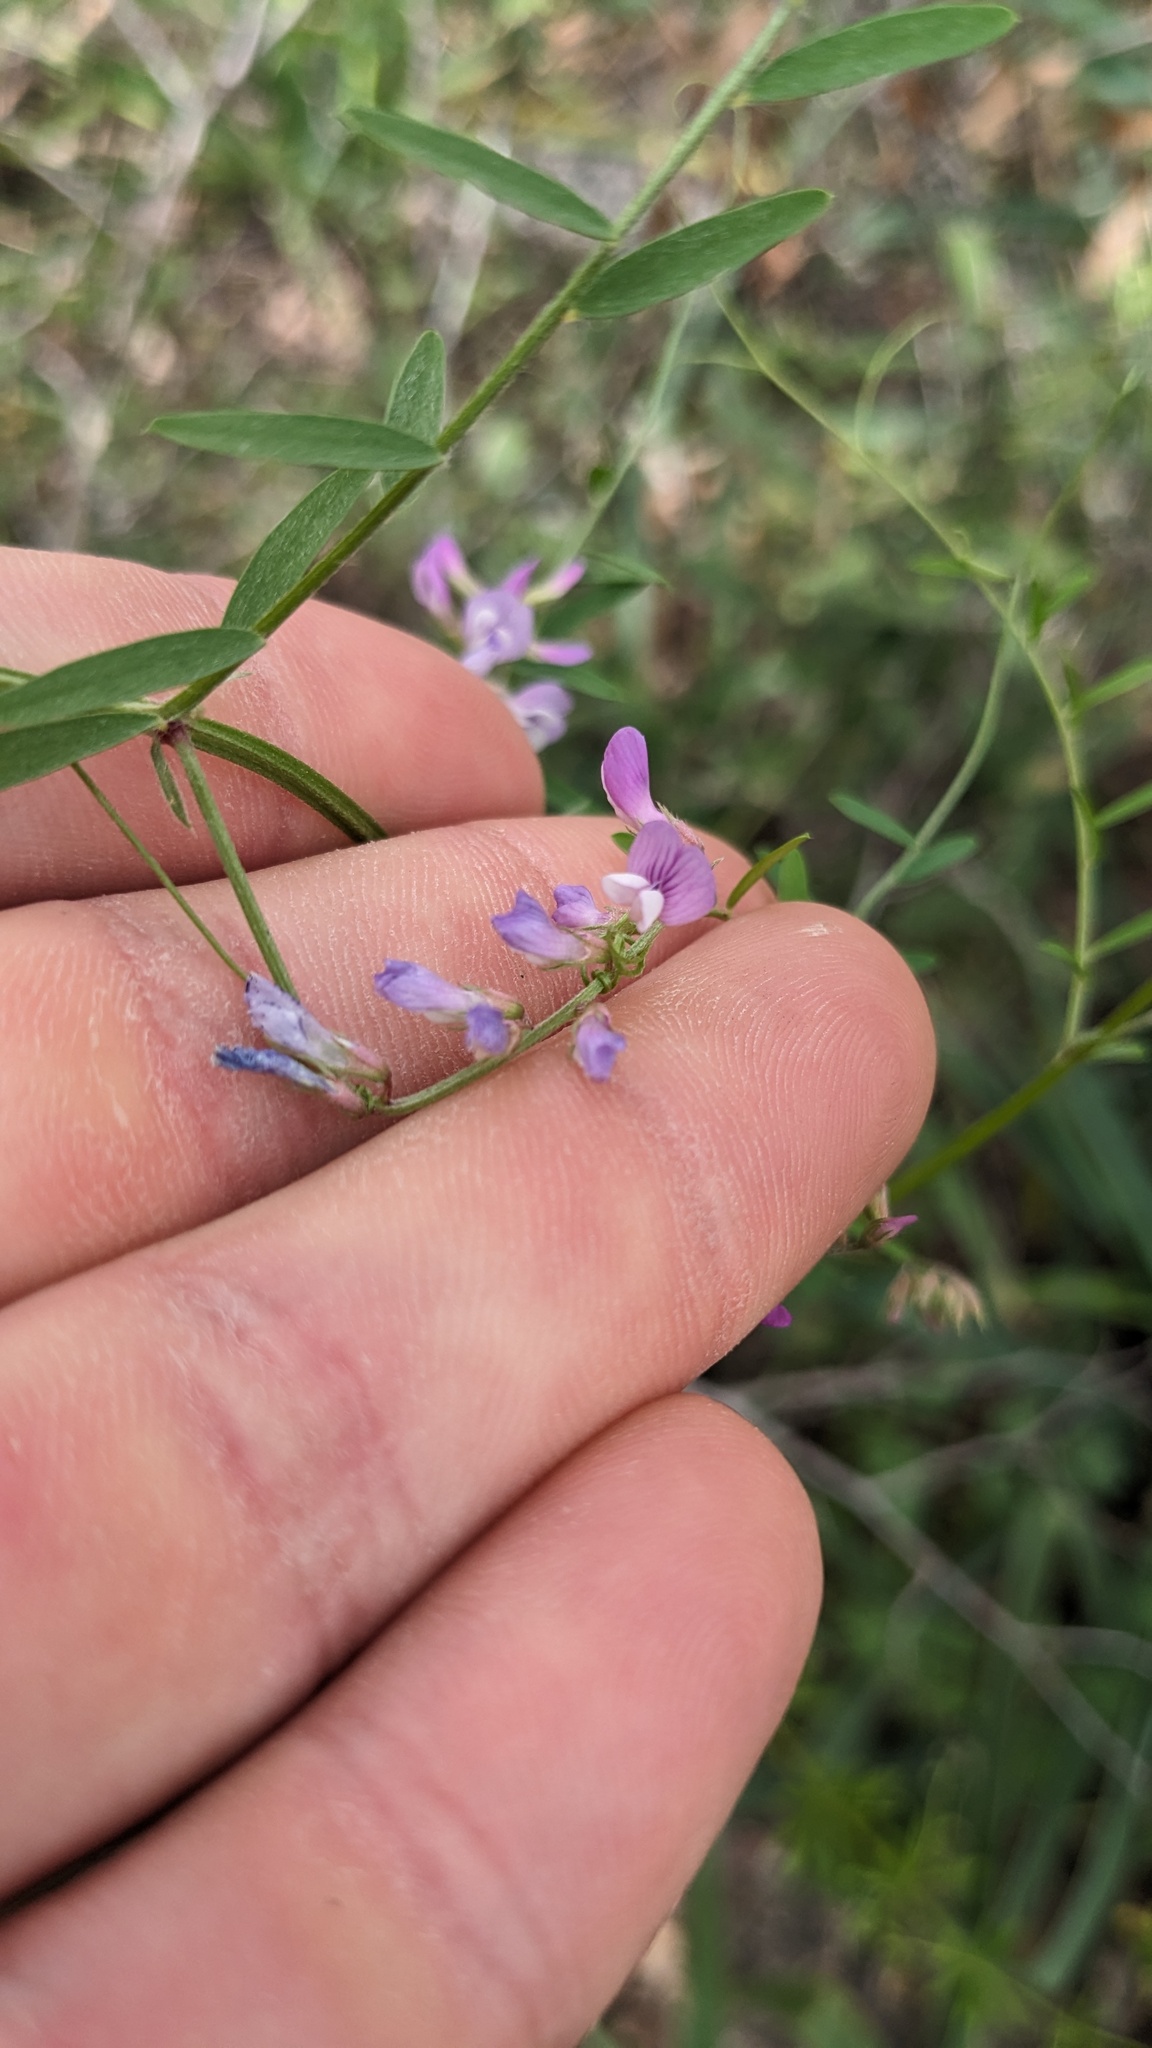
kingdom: Plantae
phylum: Tracheophyta
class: Magnoliopsida
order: Fabales
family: Fabaceae
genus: Vicia
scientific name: Vicia ludoviciana
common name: Louisiana vetch
